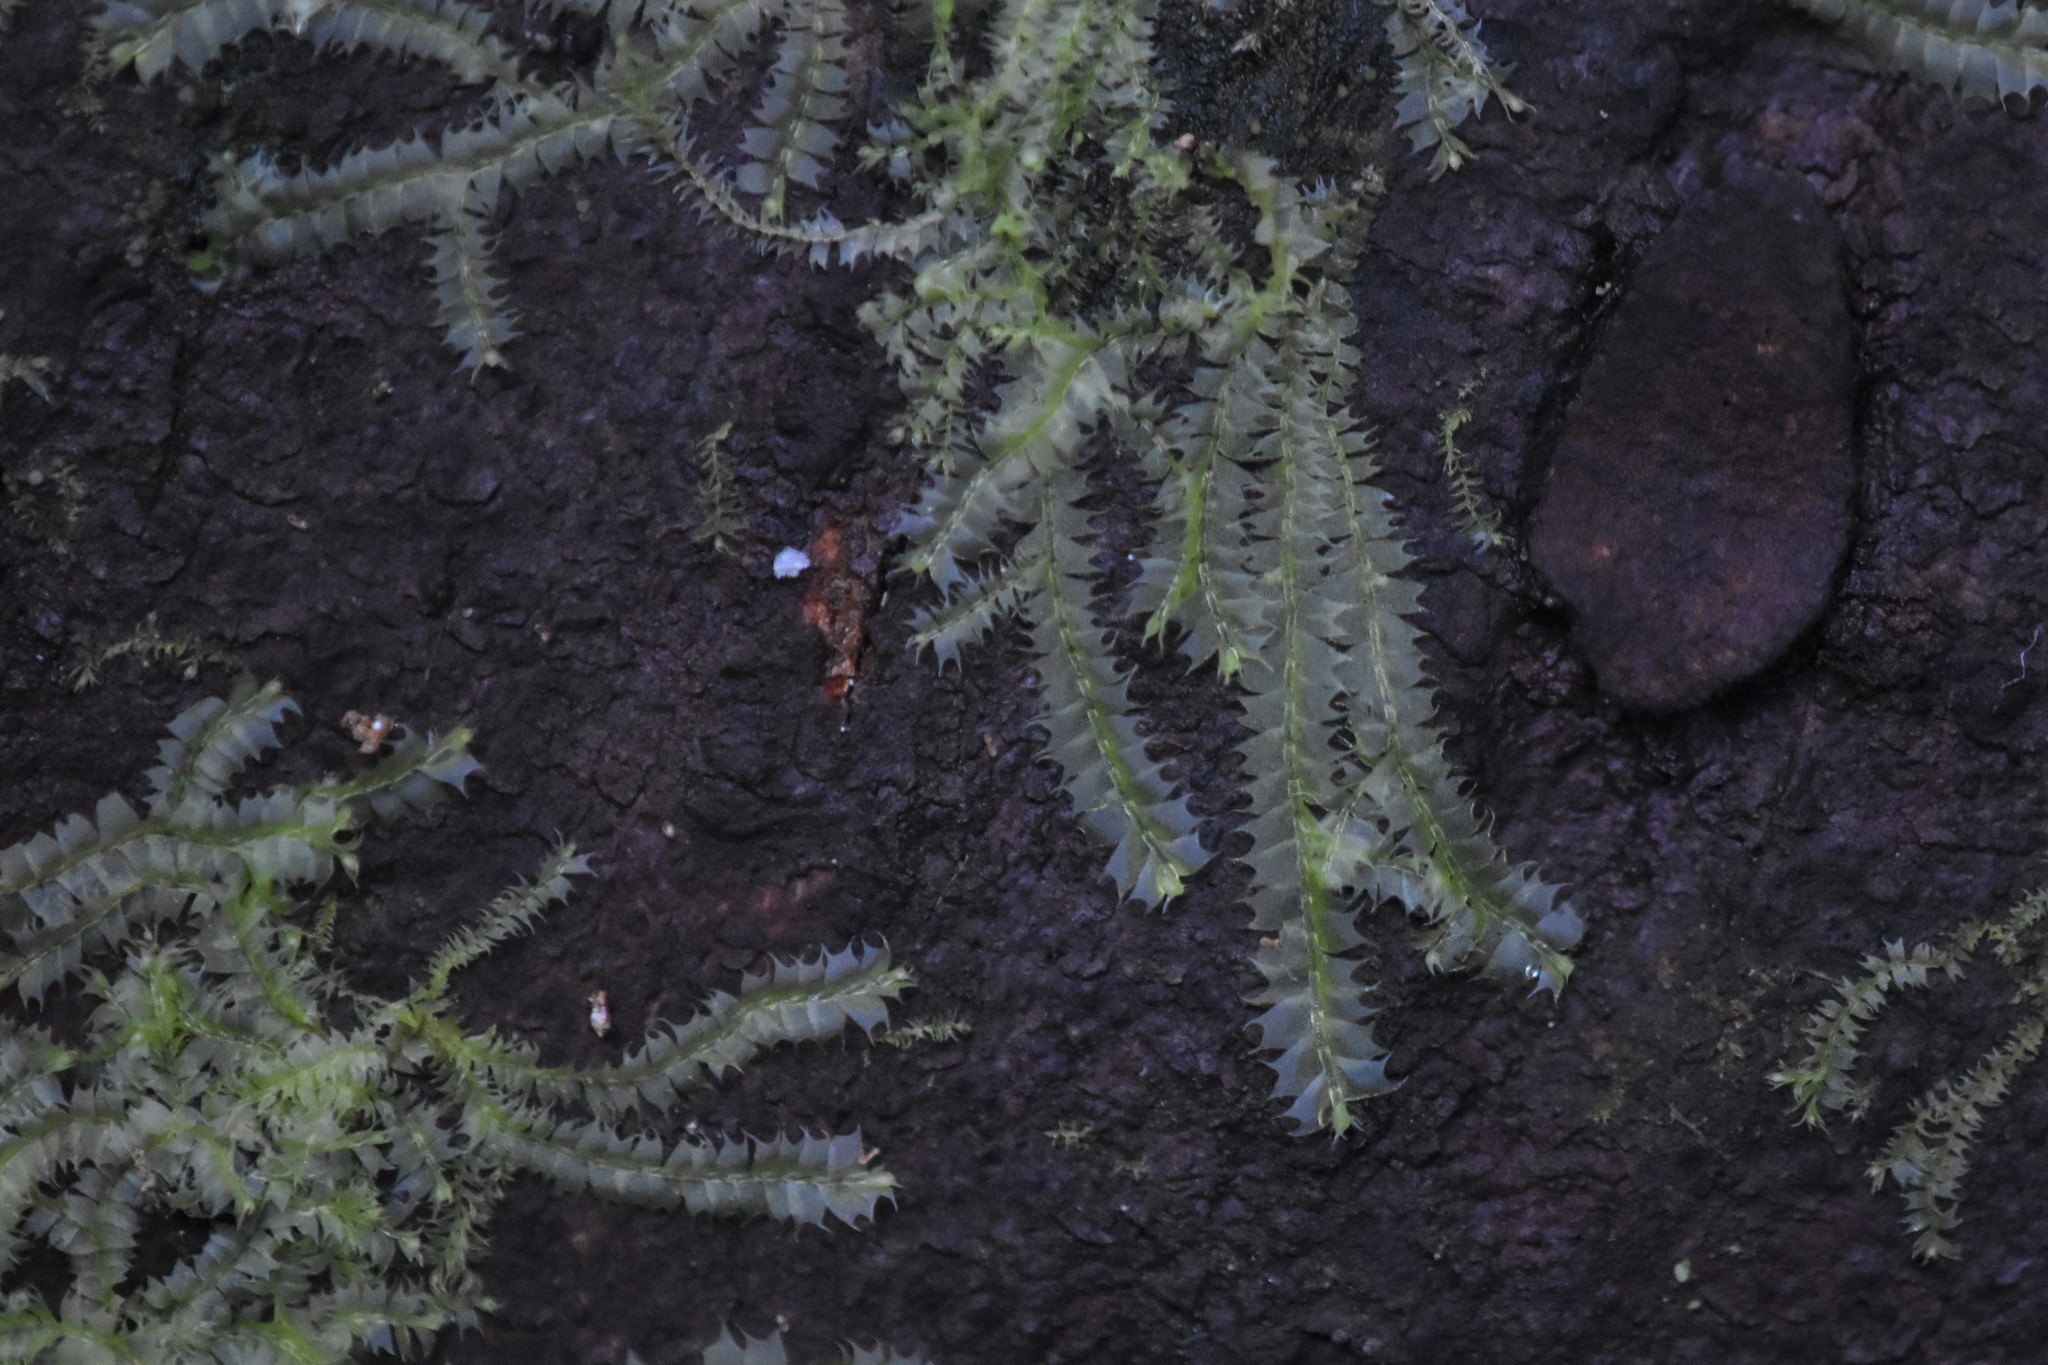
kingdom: Plantae
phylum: Marchantiophyta
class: Jungermanniopsida
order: Jungermanniales
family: Lophocoleaceae
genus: Lophocolea
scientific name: Lophocolea bidentata
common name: Bifid crestwort
